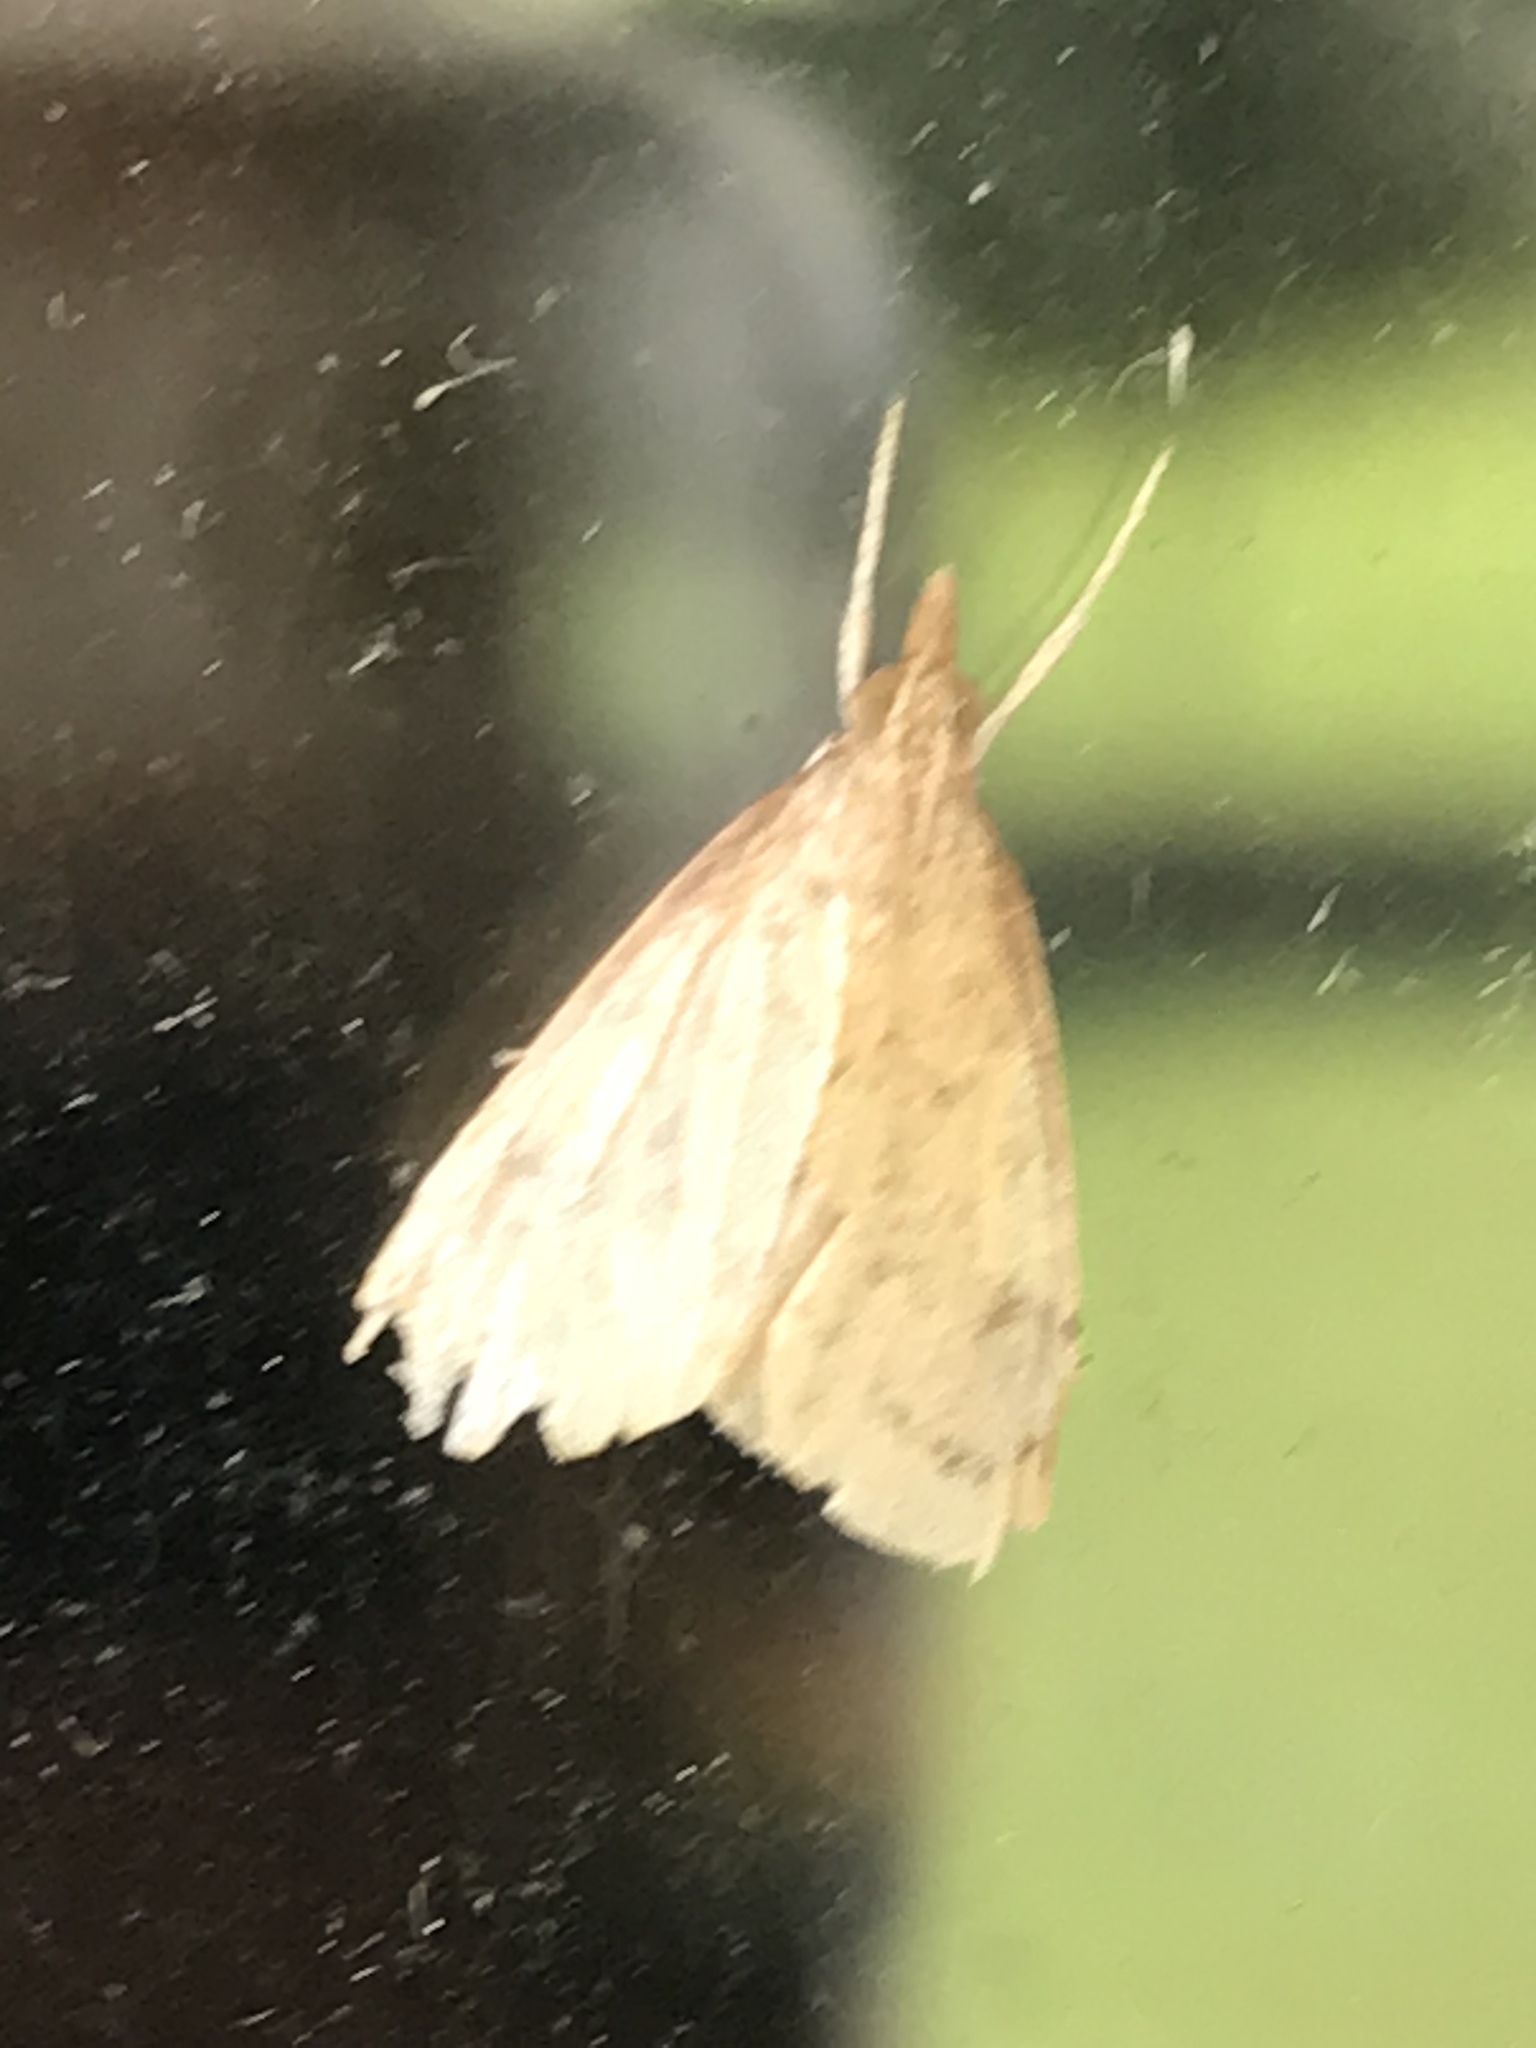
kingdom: Animalia
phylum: Arthropoda
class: Insecta
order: Lepidoptera
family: Crambidae
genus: Udea
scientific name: Udea rubigalis
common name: Celery leaftier moth
